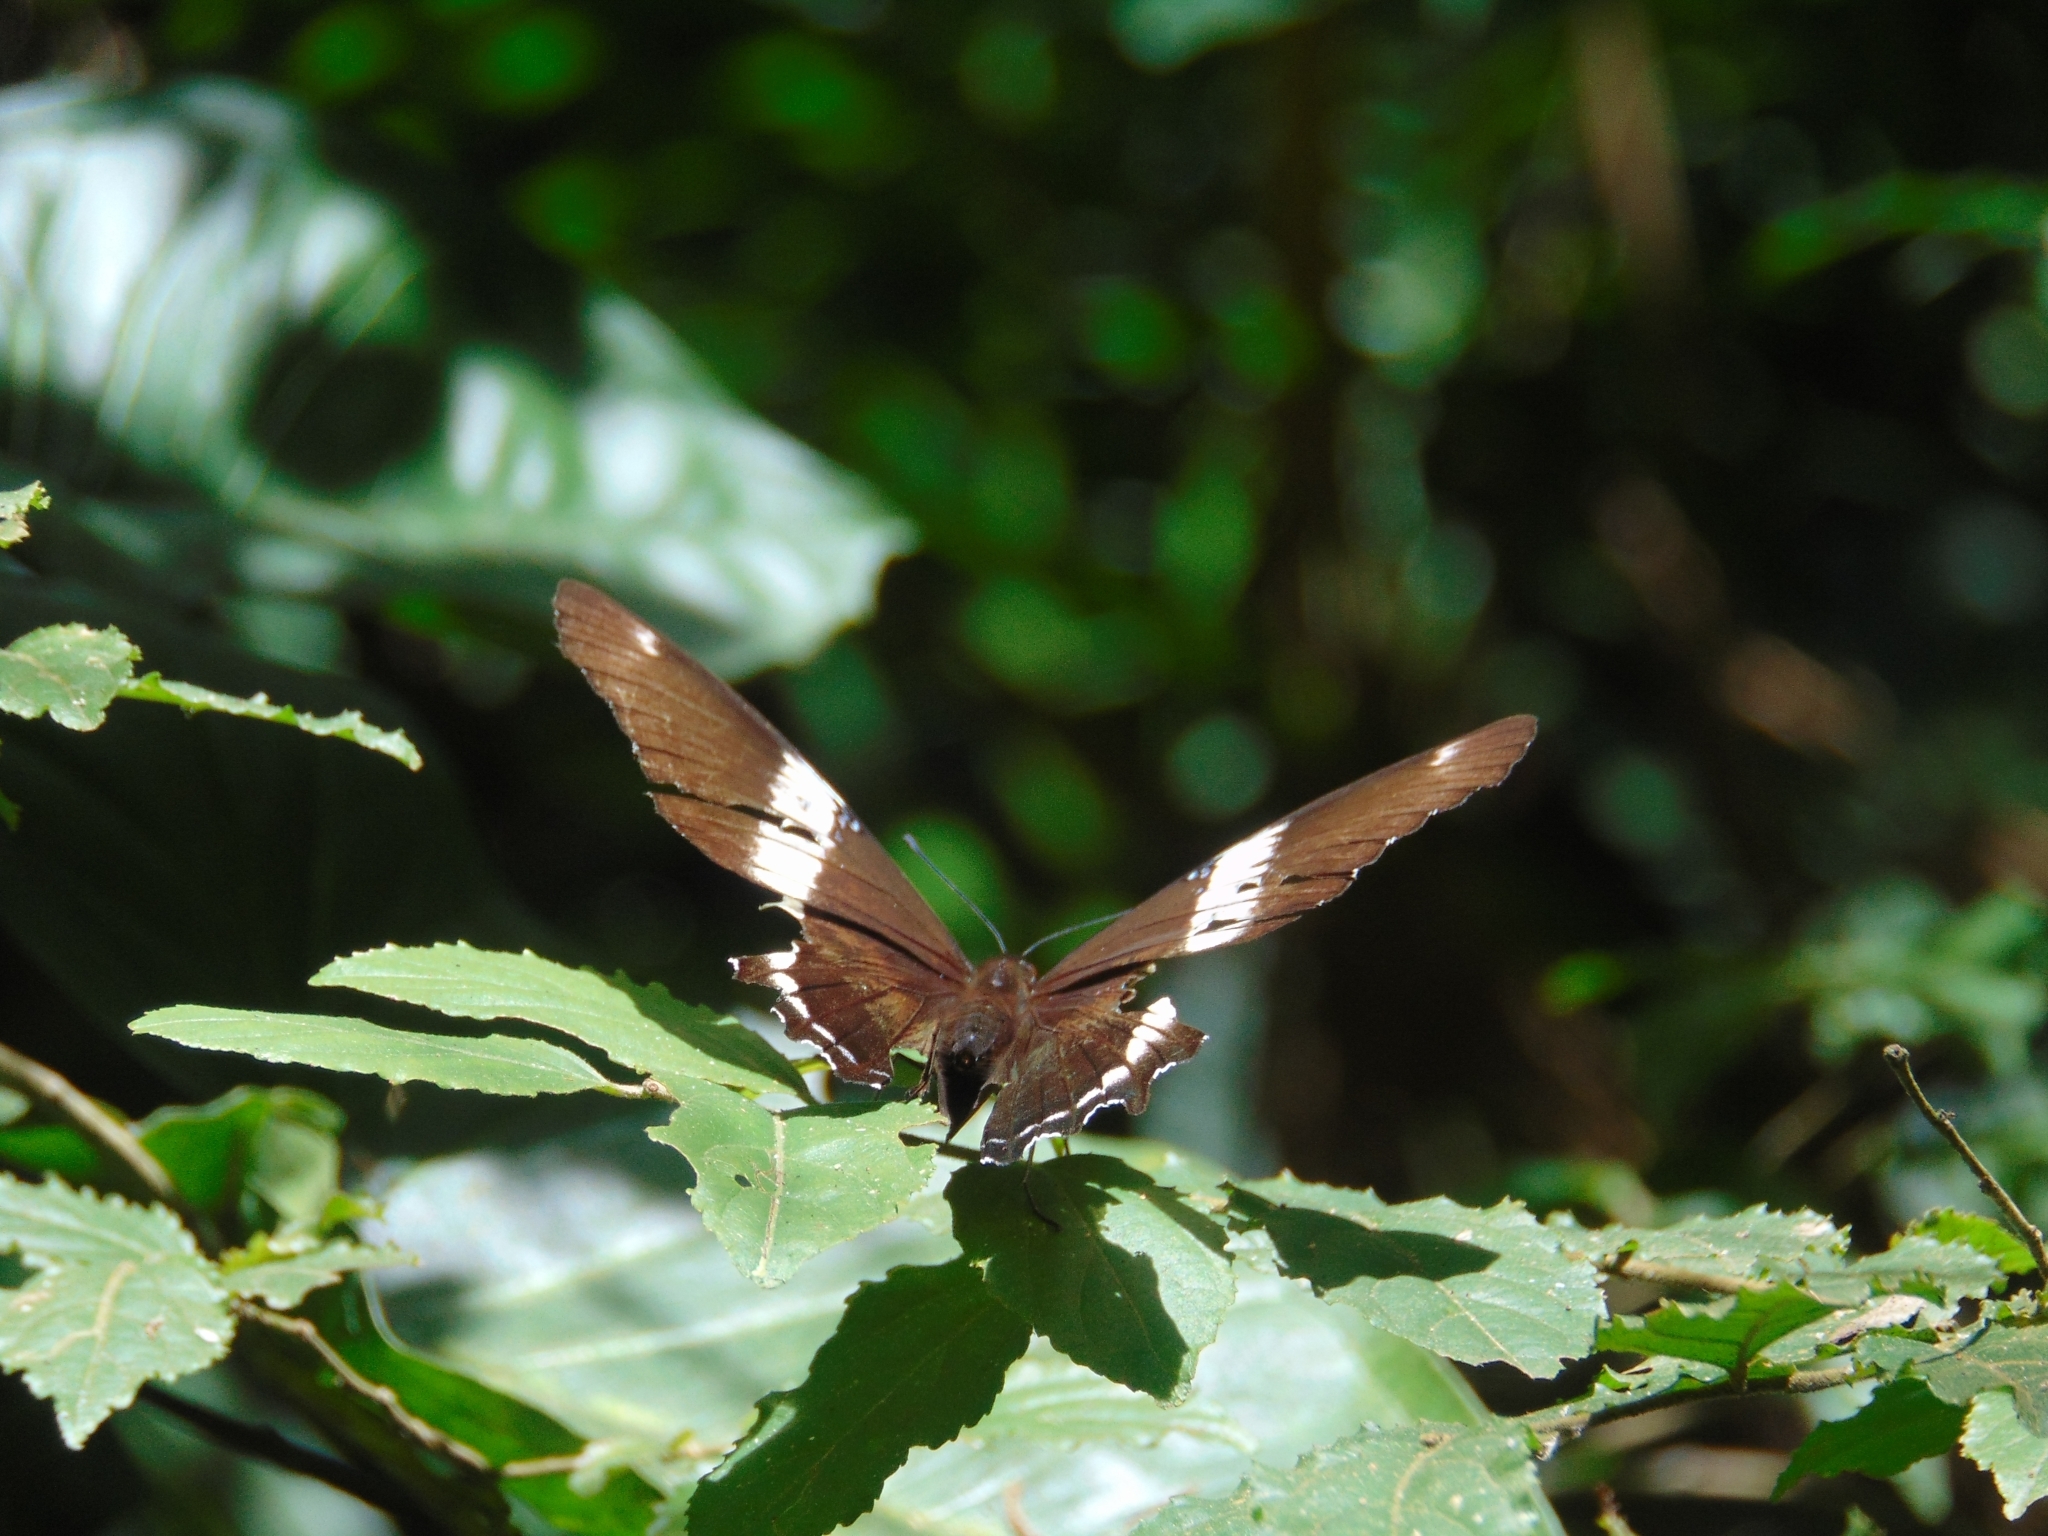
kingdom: Animalia
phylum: Arthropoda
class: Insecta
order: Lepidoptera
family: Nymphalidae
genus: Siproeta
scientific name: Siproeta epaphus
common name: Rusty-tipped page
